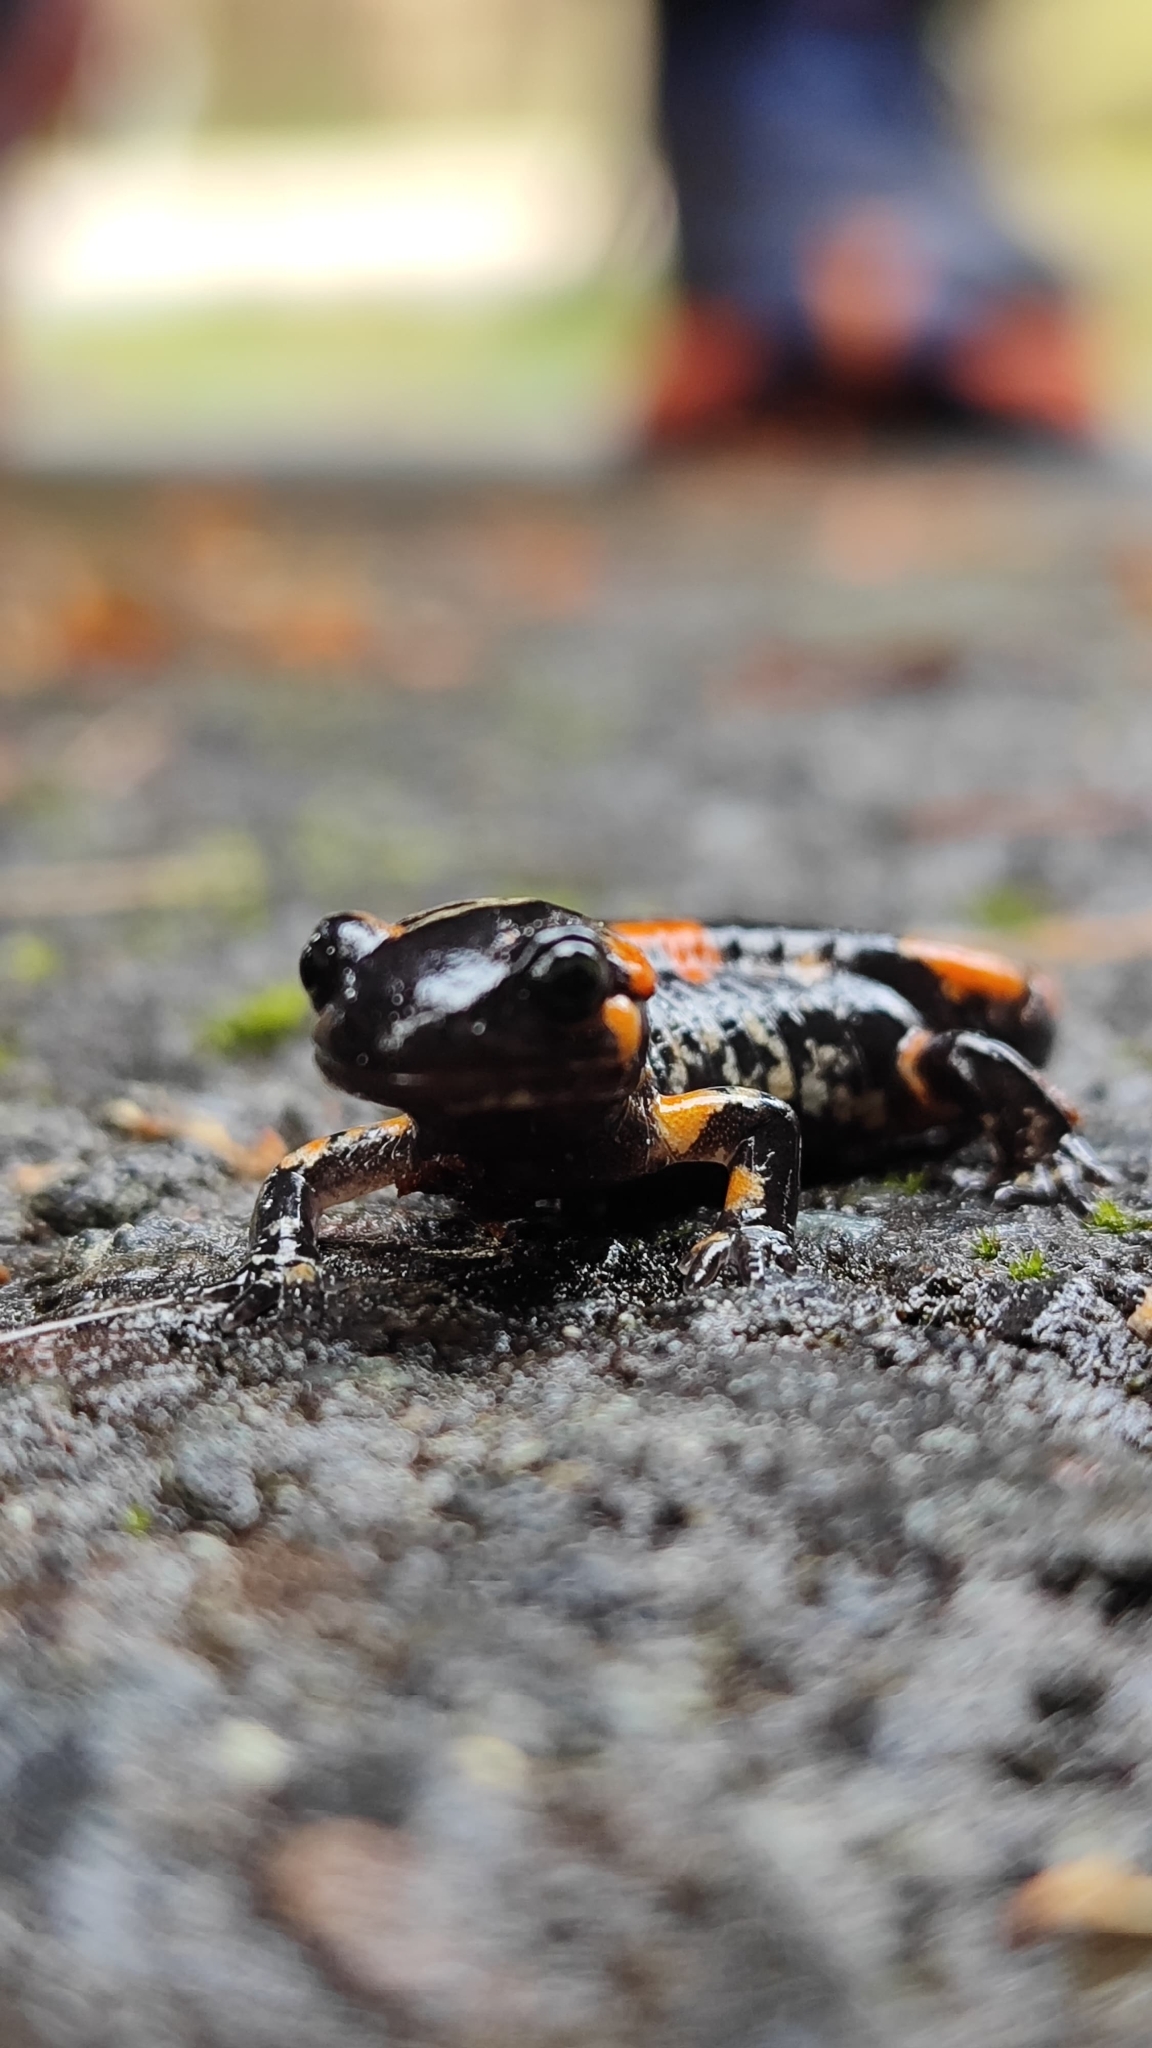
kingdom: Animalia
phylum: Chordata
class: Amphibia
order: Caudata
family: Salamandridae
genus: Salamandra
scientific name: Salamandra salamandra
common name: Fire salamander
